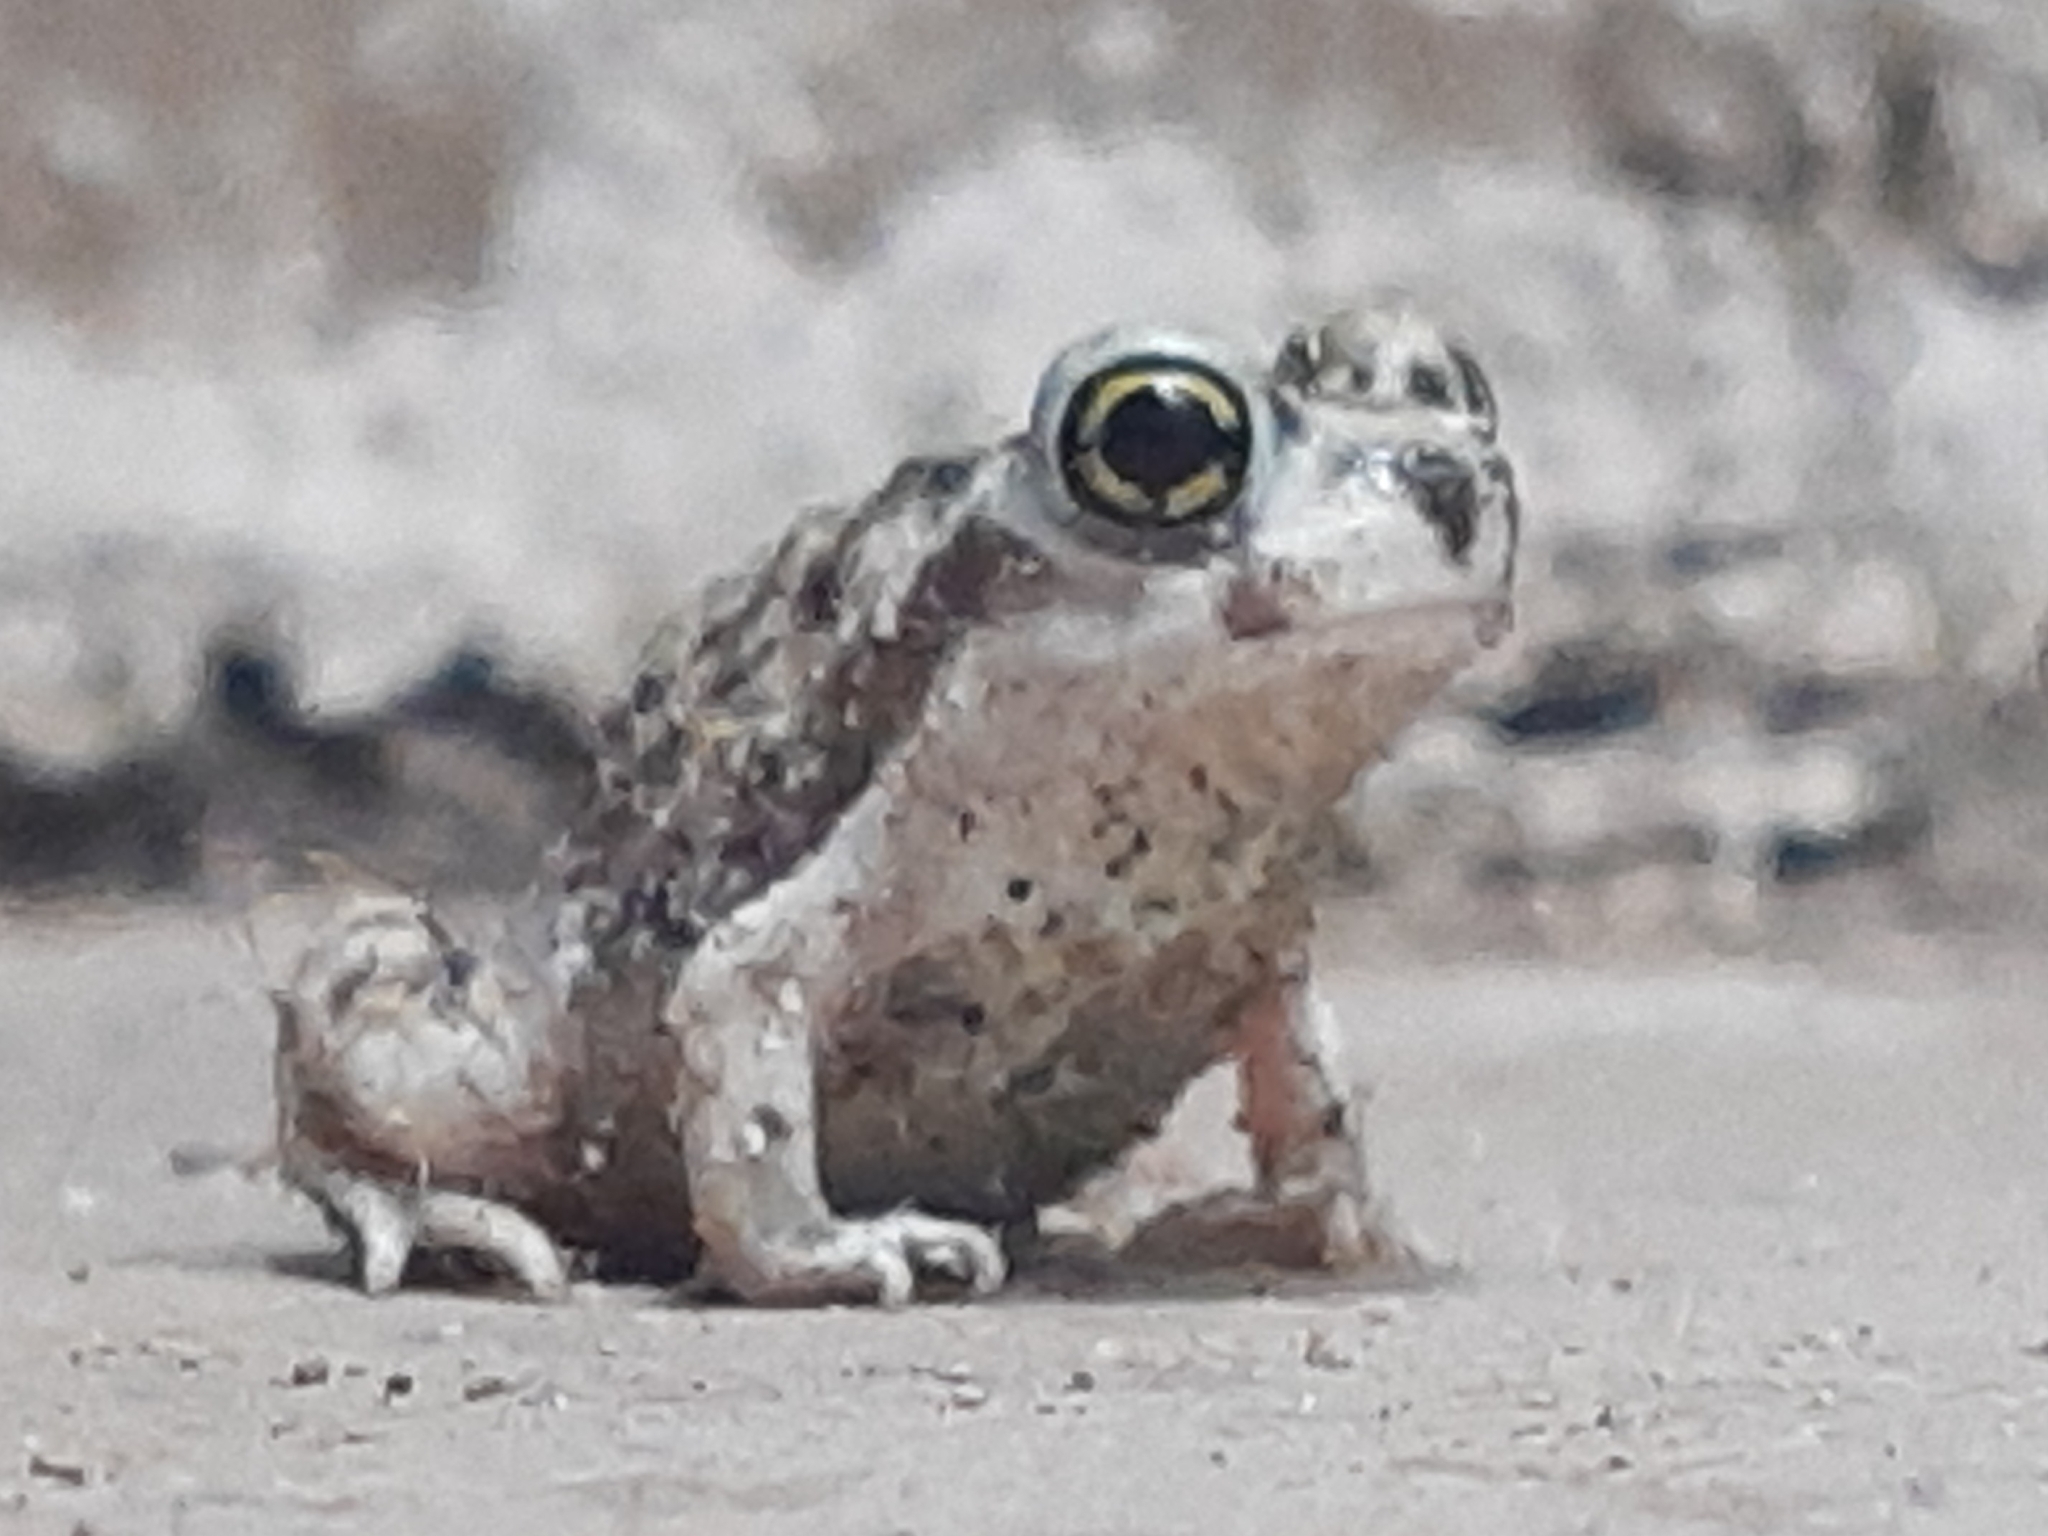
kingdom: Animalia
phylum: Chordata
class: Amphibia
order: Anura
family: Scaphiopodidae
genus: Scaphiopus
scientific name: Scaphiopus couchii
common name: Couch's spadefoot toad
